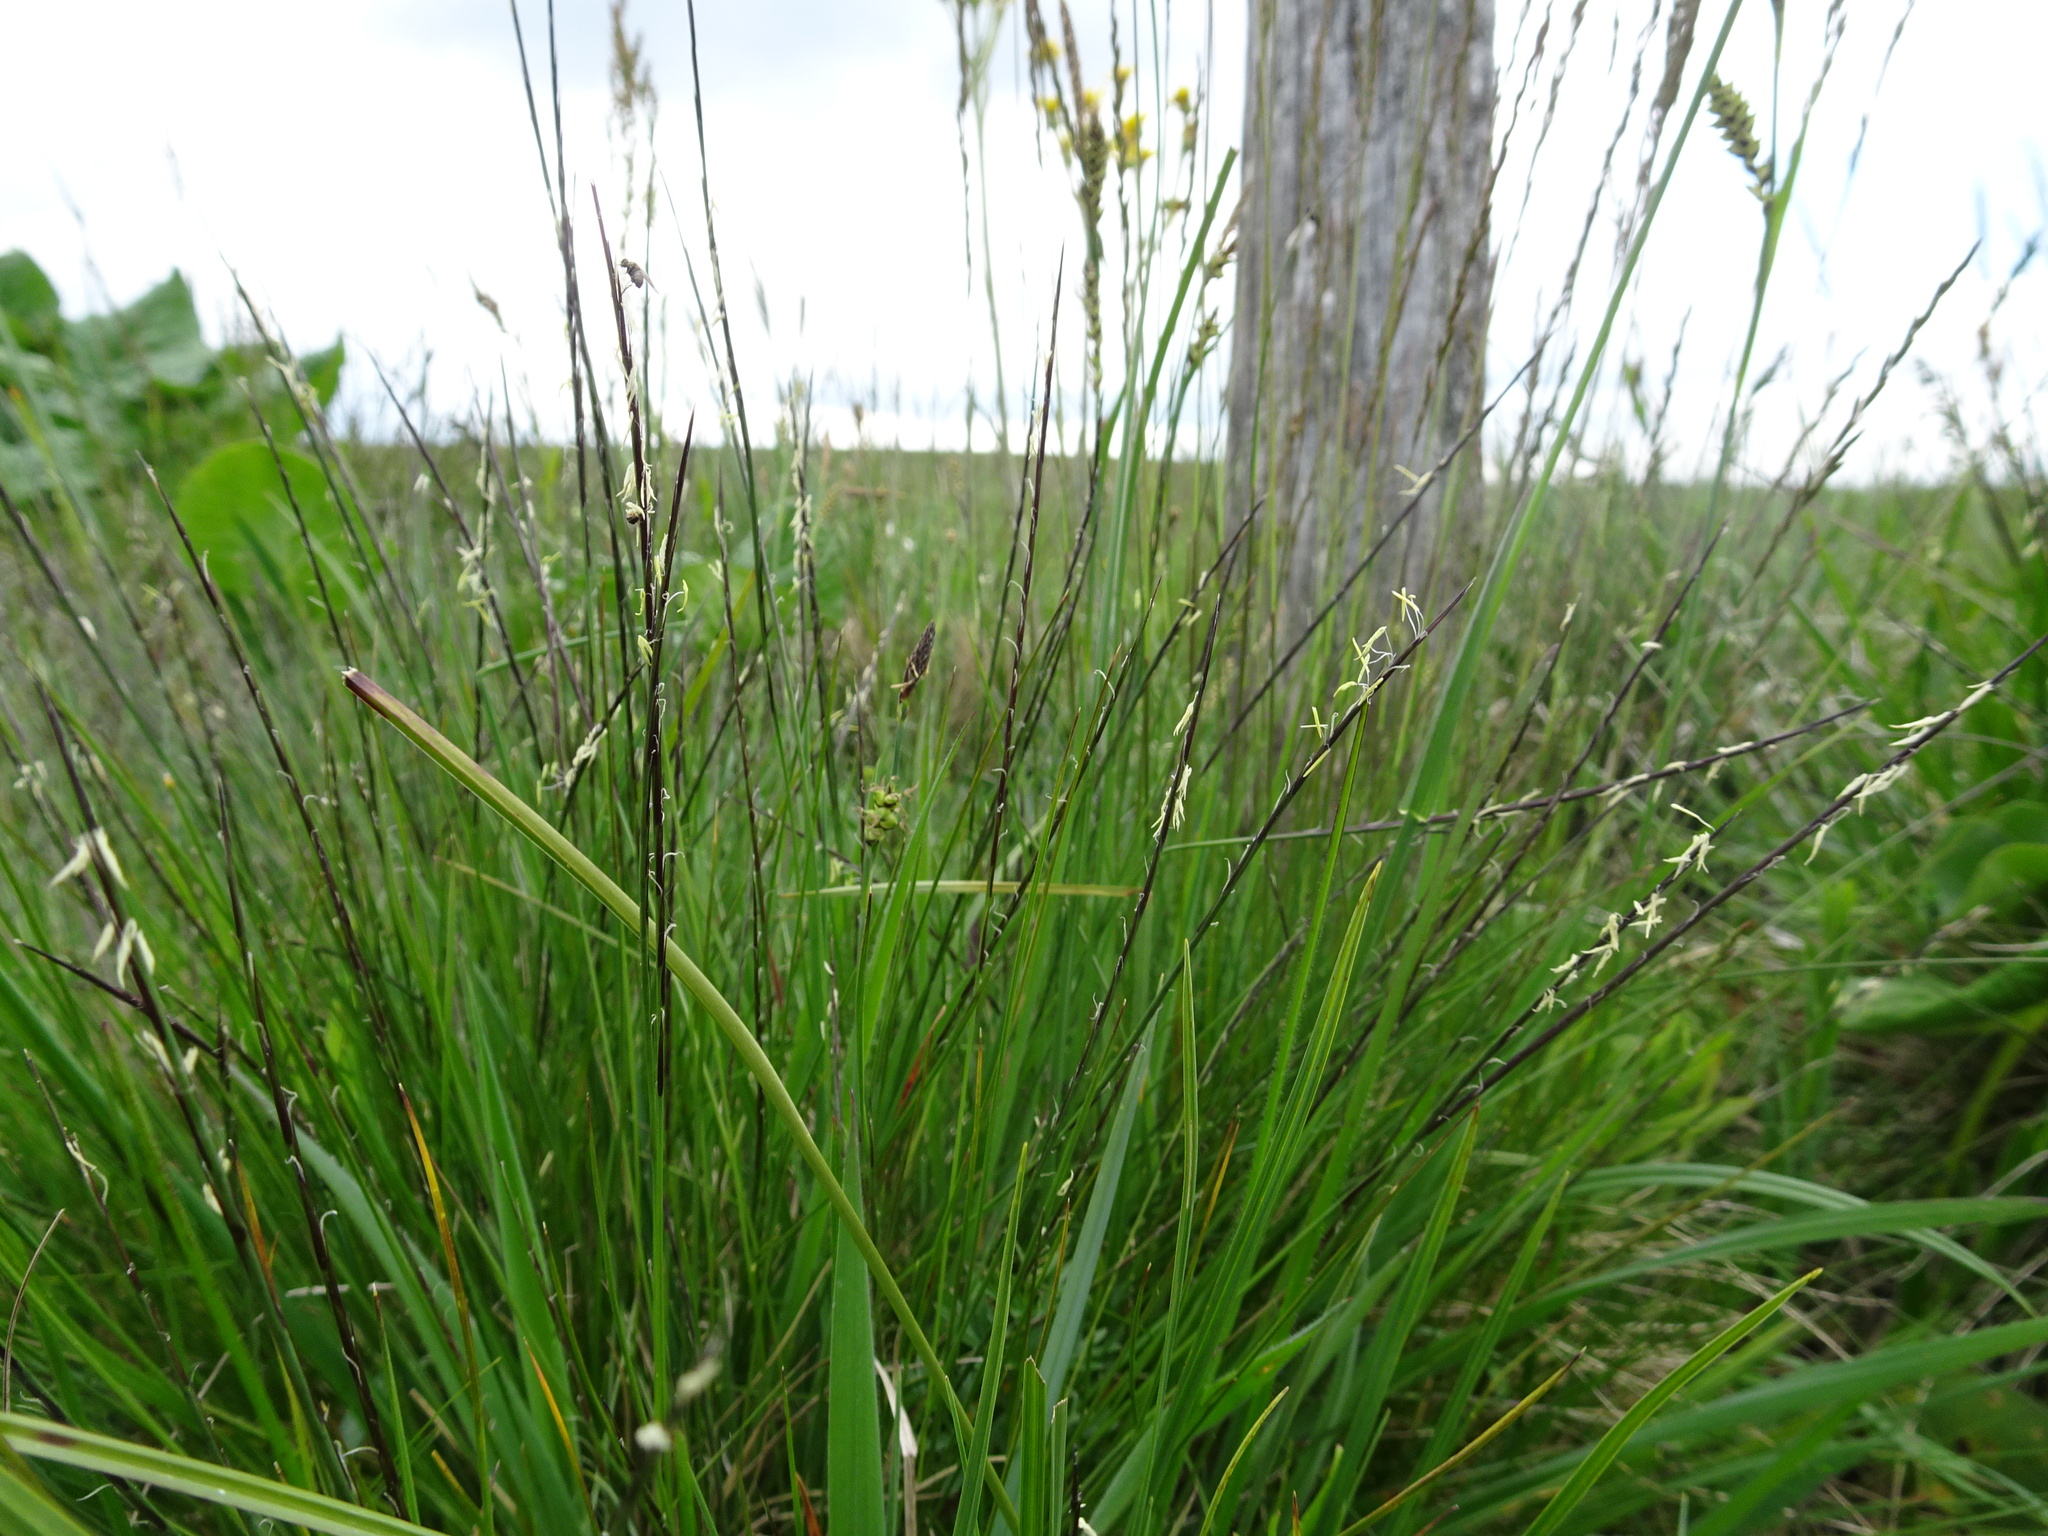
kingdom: Plantae
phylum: Tracheophyta
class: Liliopsida
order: Poales
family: Poaceae
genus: Nardus
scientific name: Nardus stricta
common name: Mat-grass
